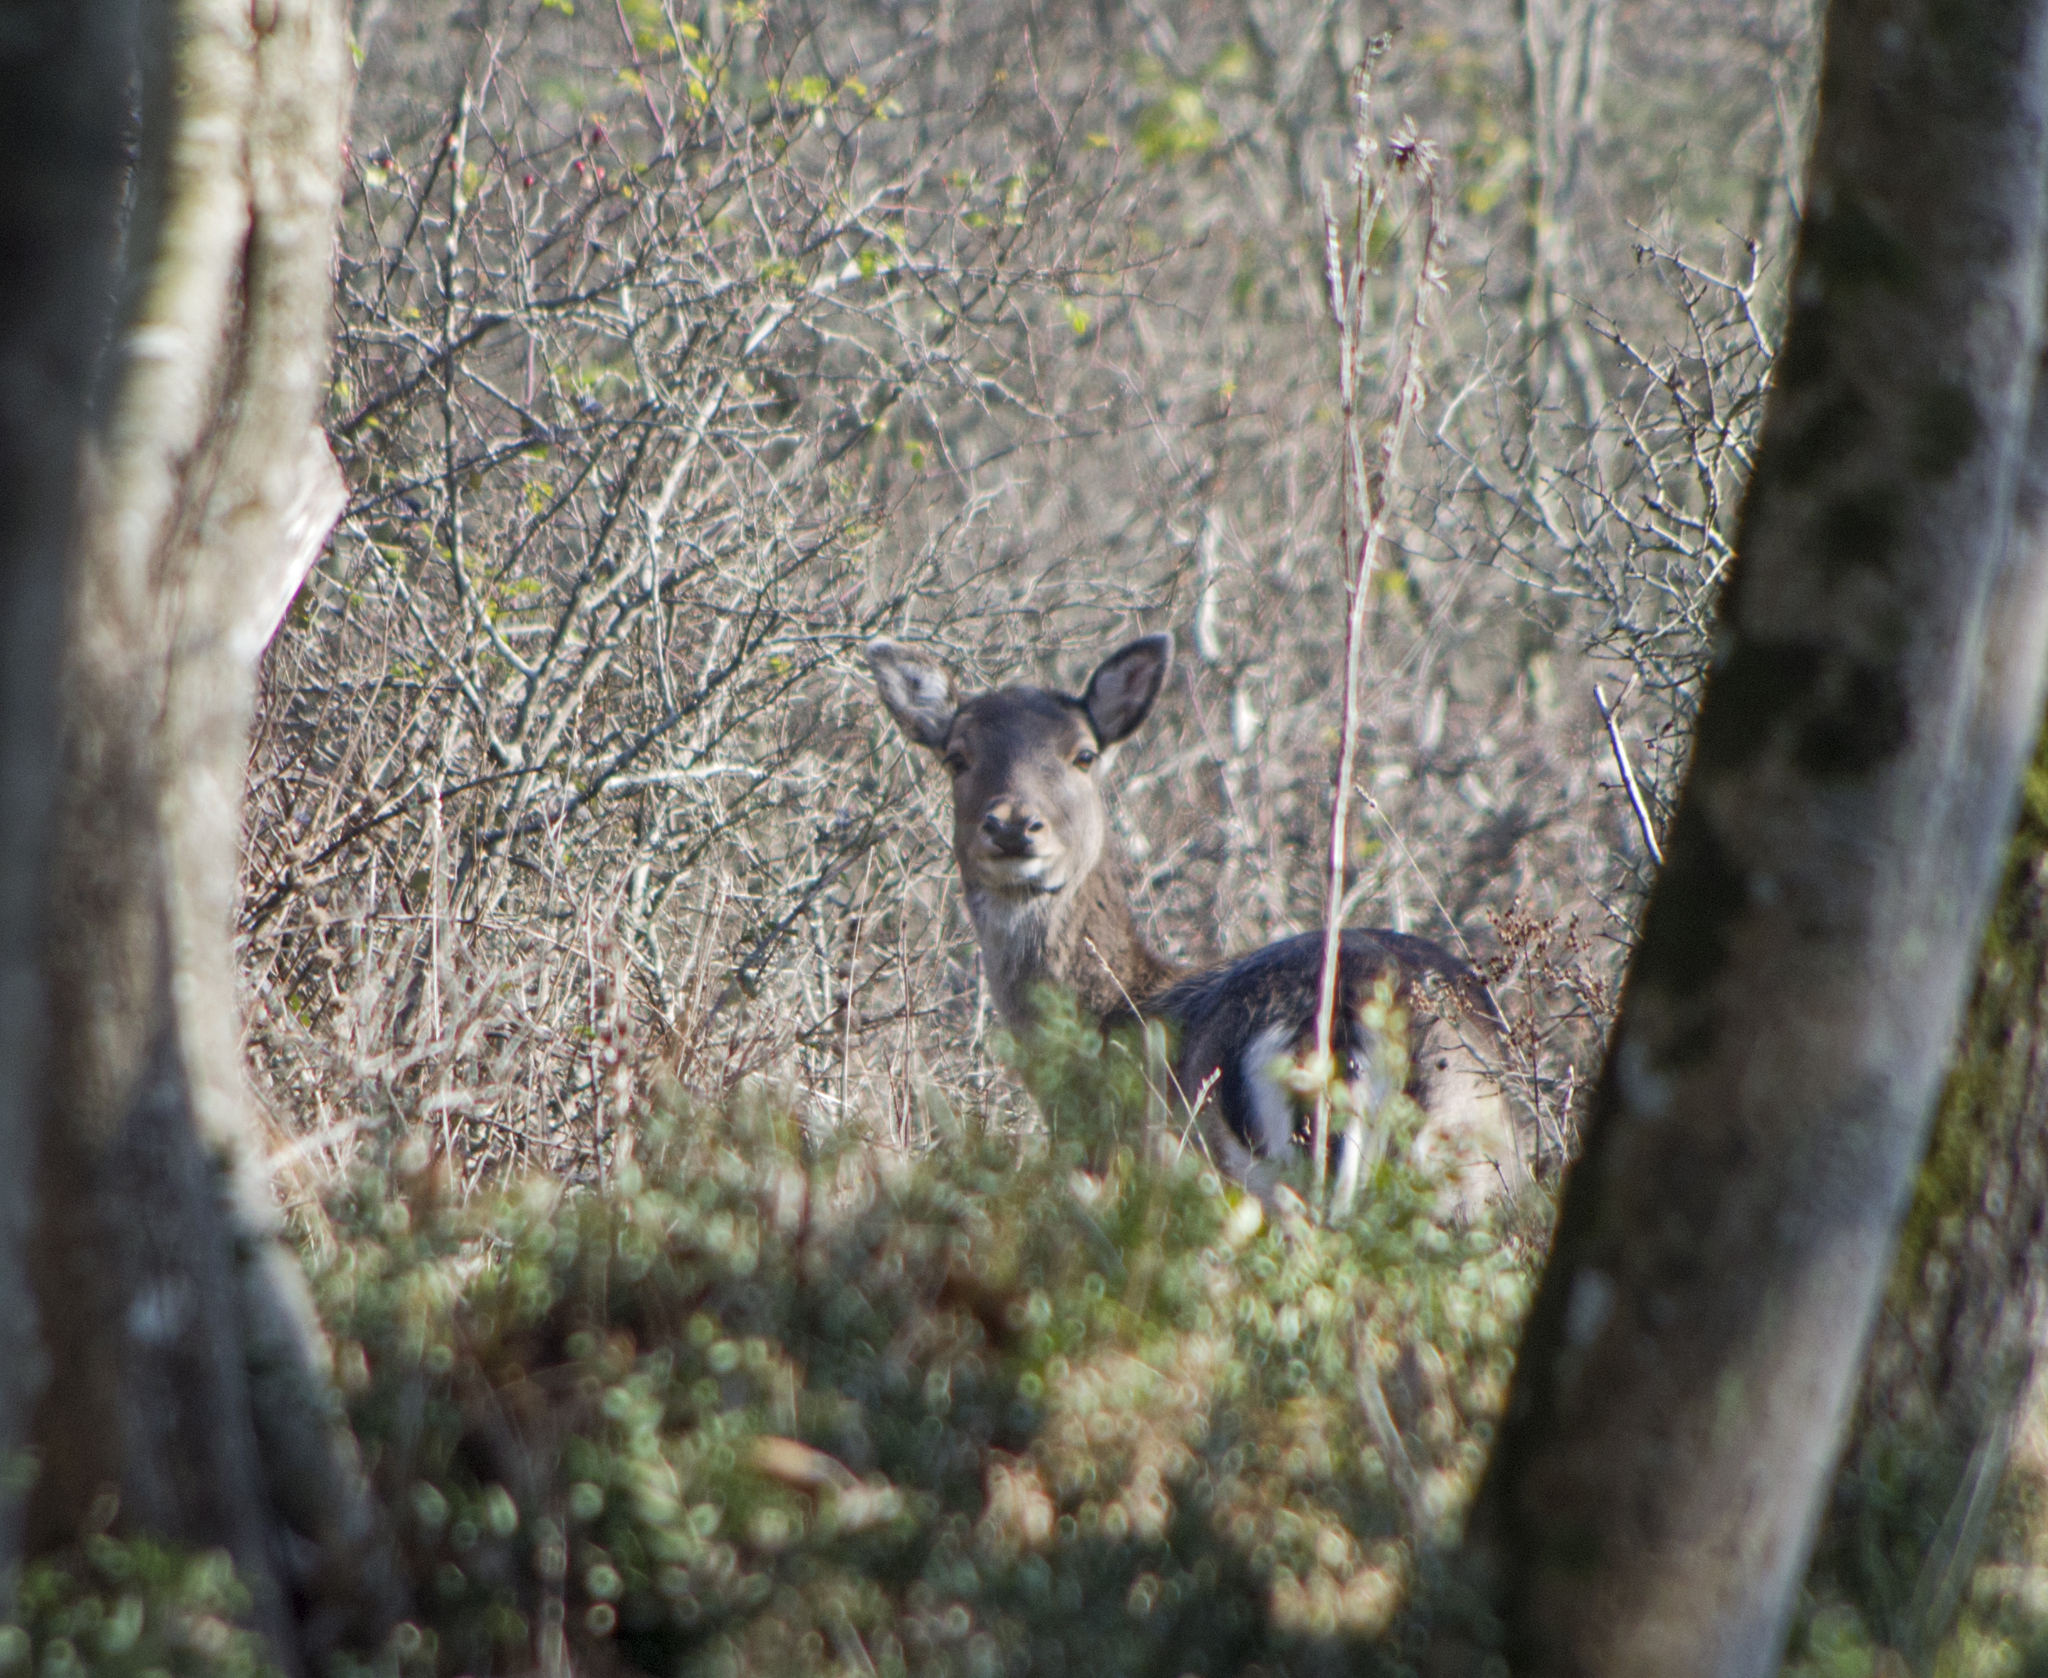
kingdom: Animalia
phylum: Chordata
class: Mammalia
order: Artiodactyla
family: Cervidae
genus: Dama
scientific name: Dama dama
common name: Fallow deer
